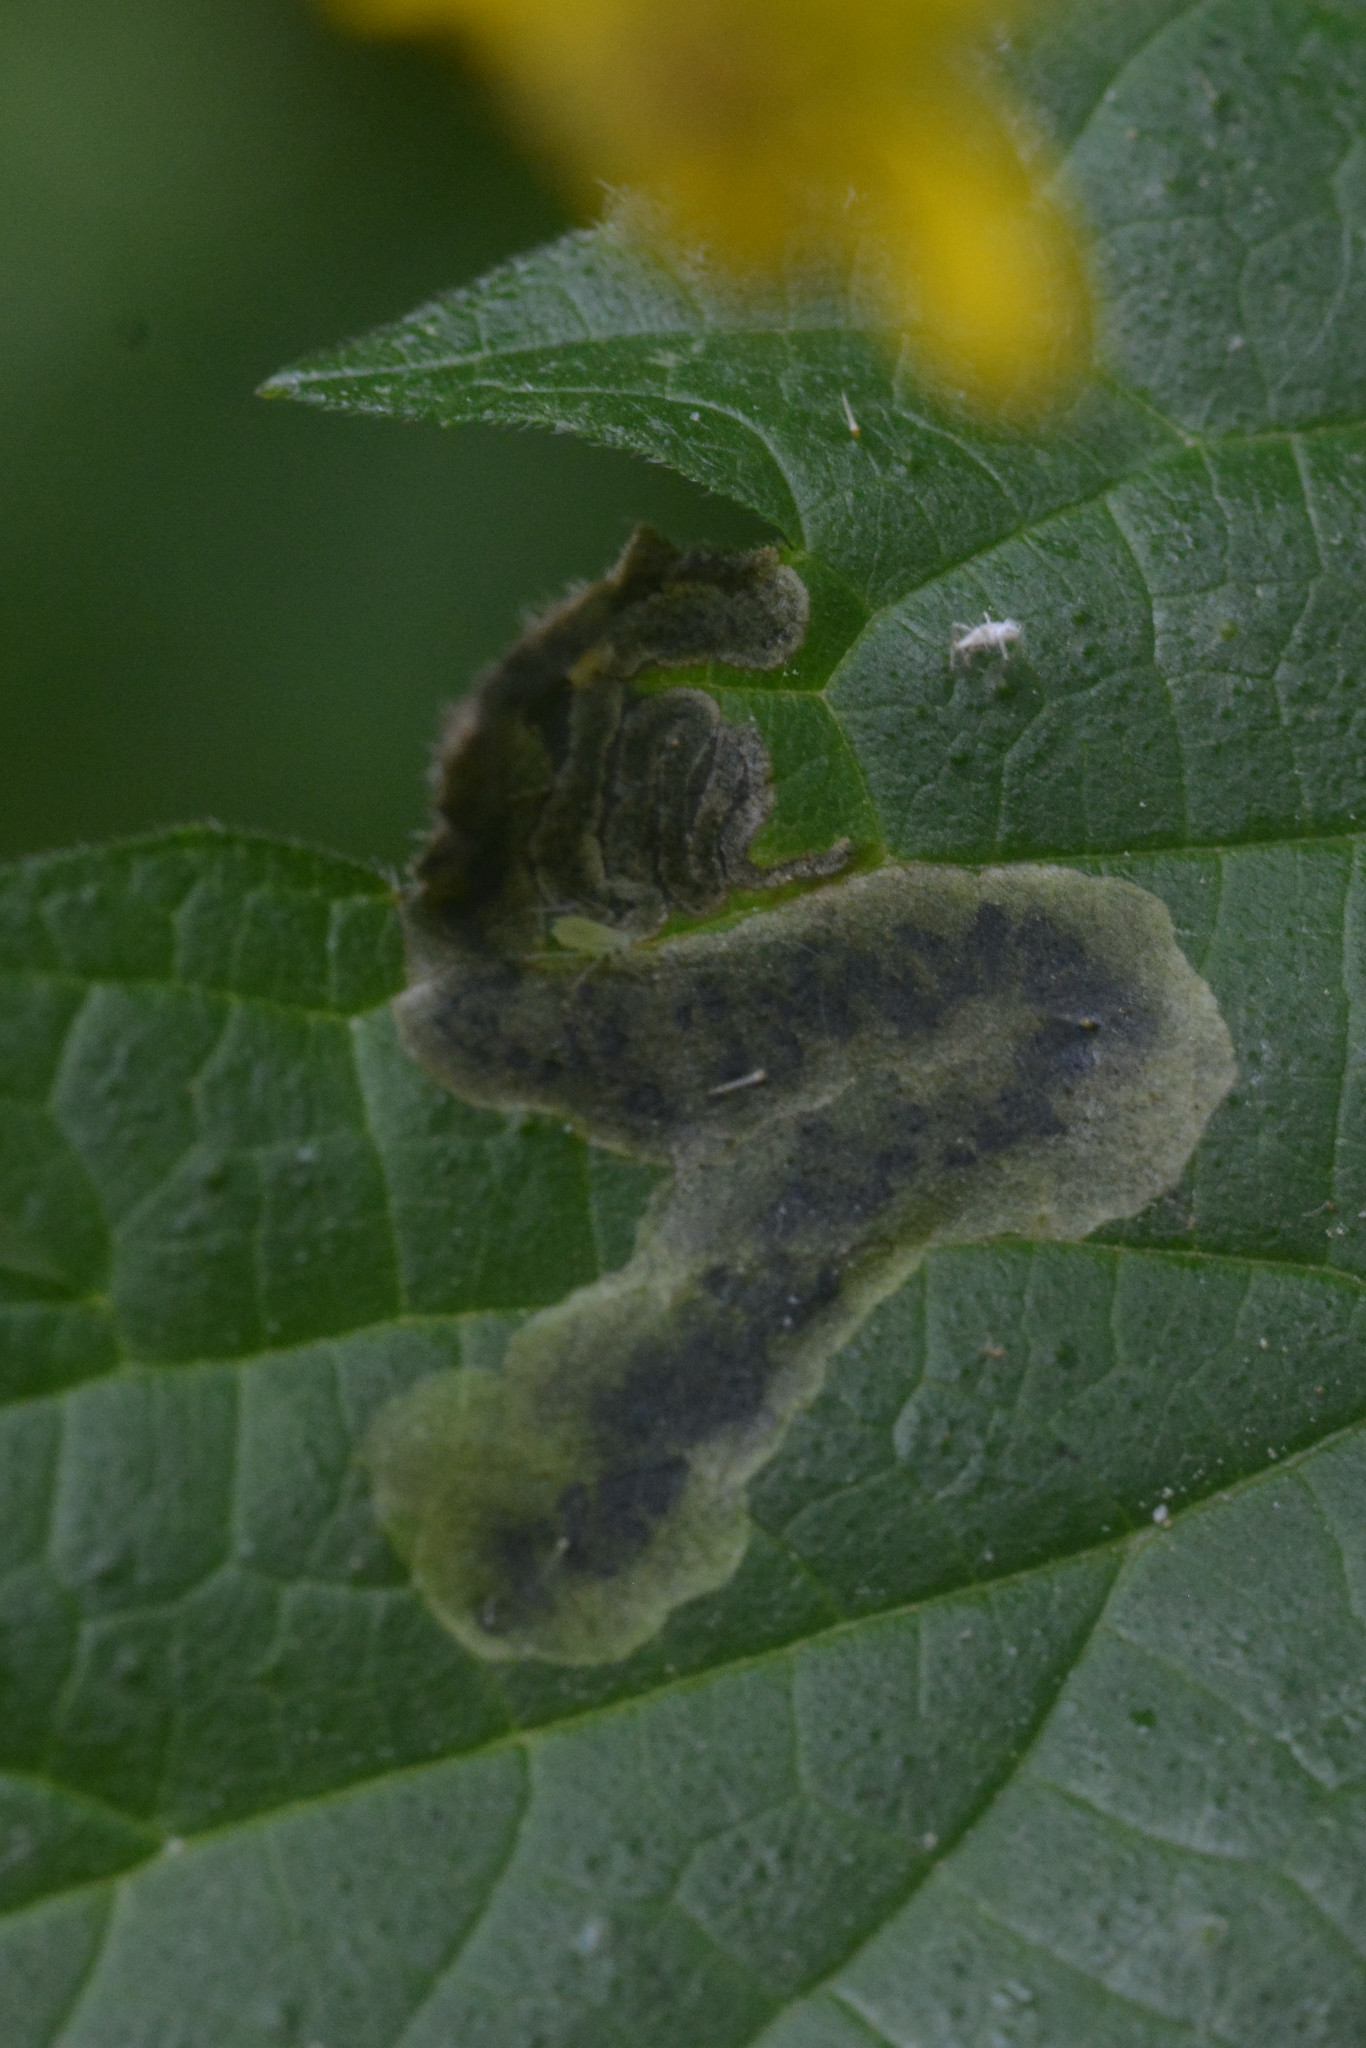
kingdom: Animalia
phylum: Arthropoda
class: Insecta
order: Diptera
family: Agromyzidae
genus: Agromyza
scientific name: Agromyza anthracina
